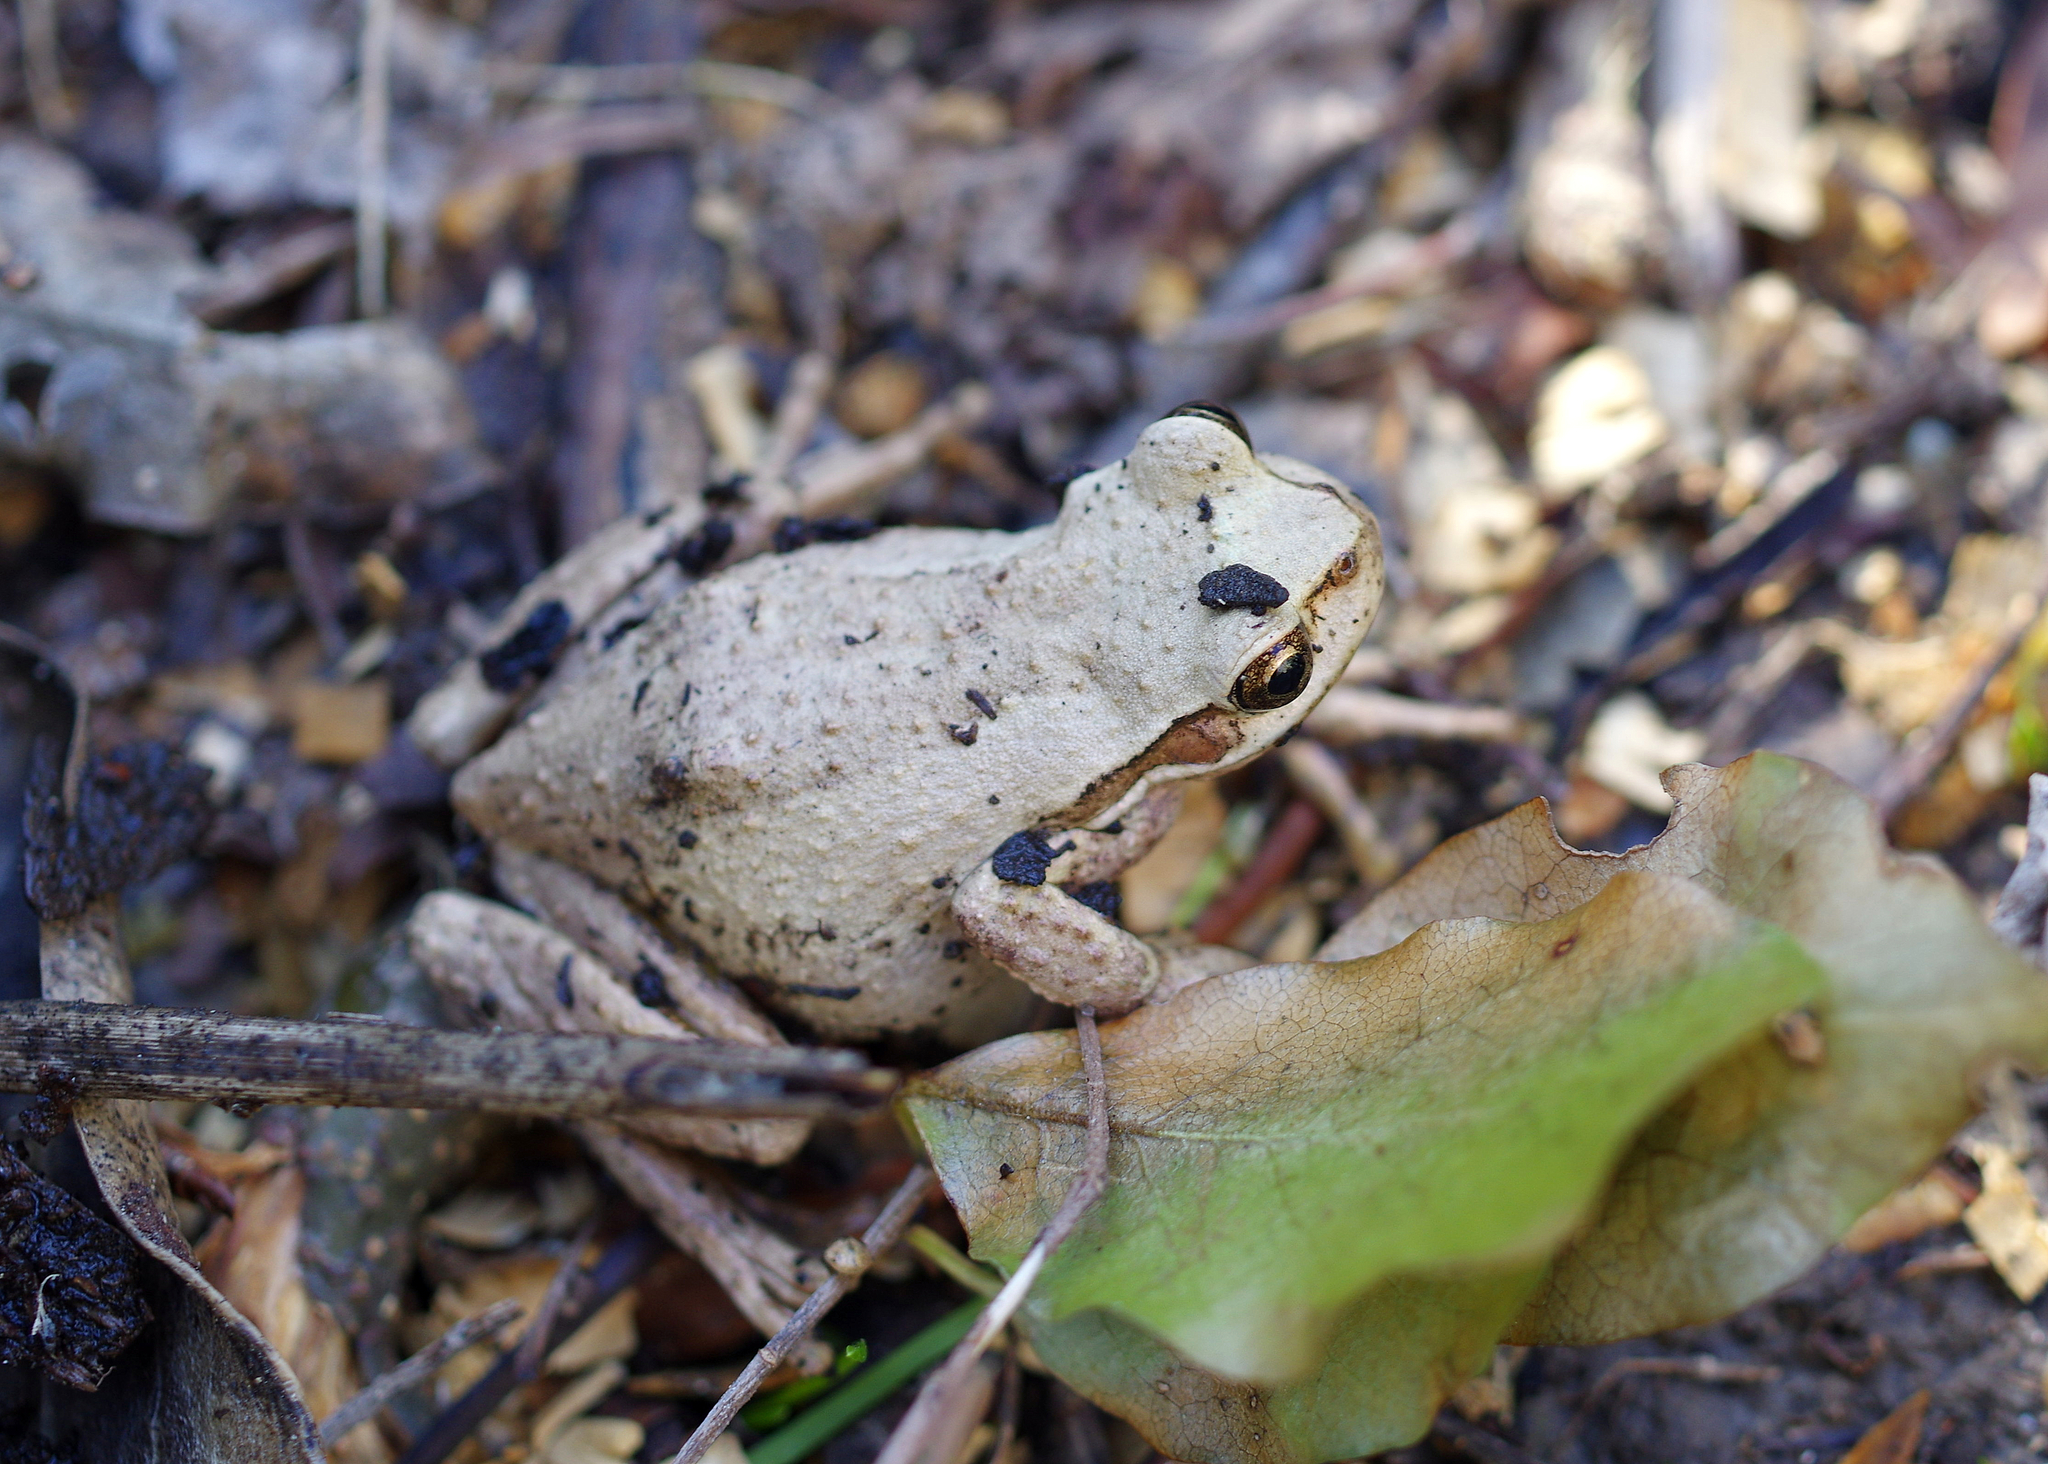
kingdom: Animalia
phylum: Chordata
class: Amphibia
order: Anura
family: Pelodryadidae
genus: Litoria
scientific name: Litoria ewingii
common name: Southern brown tree frog
